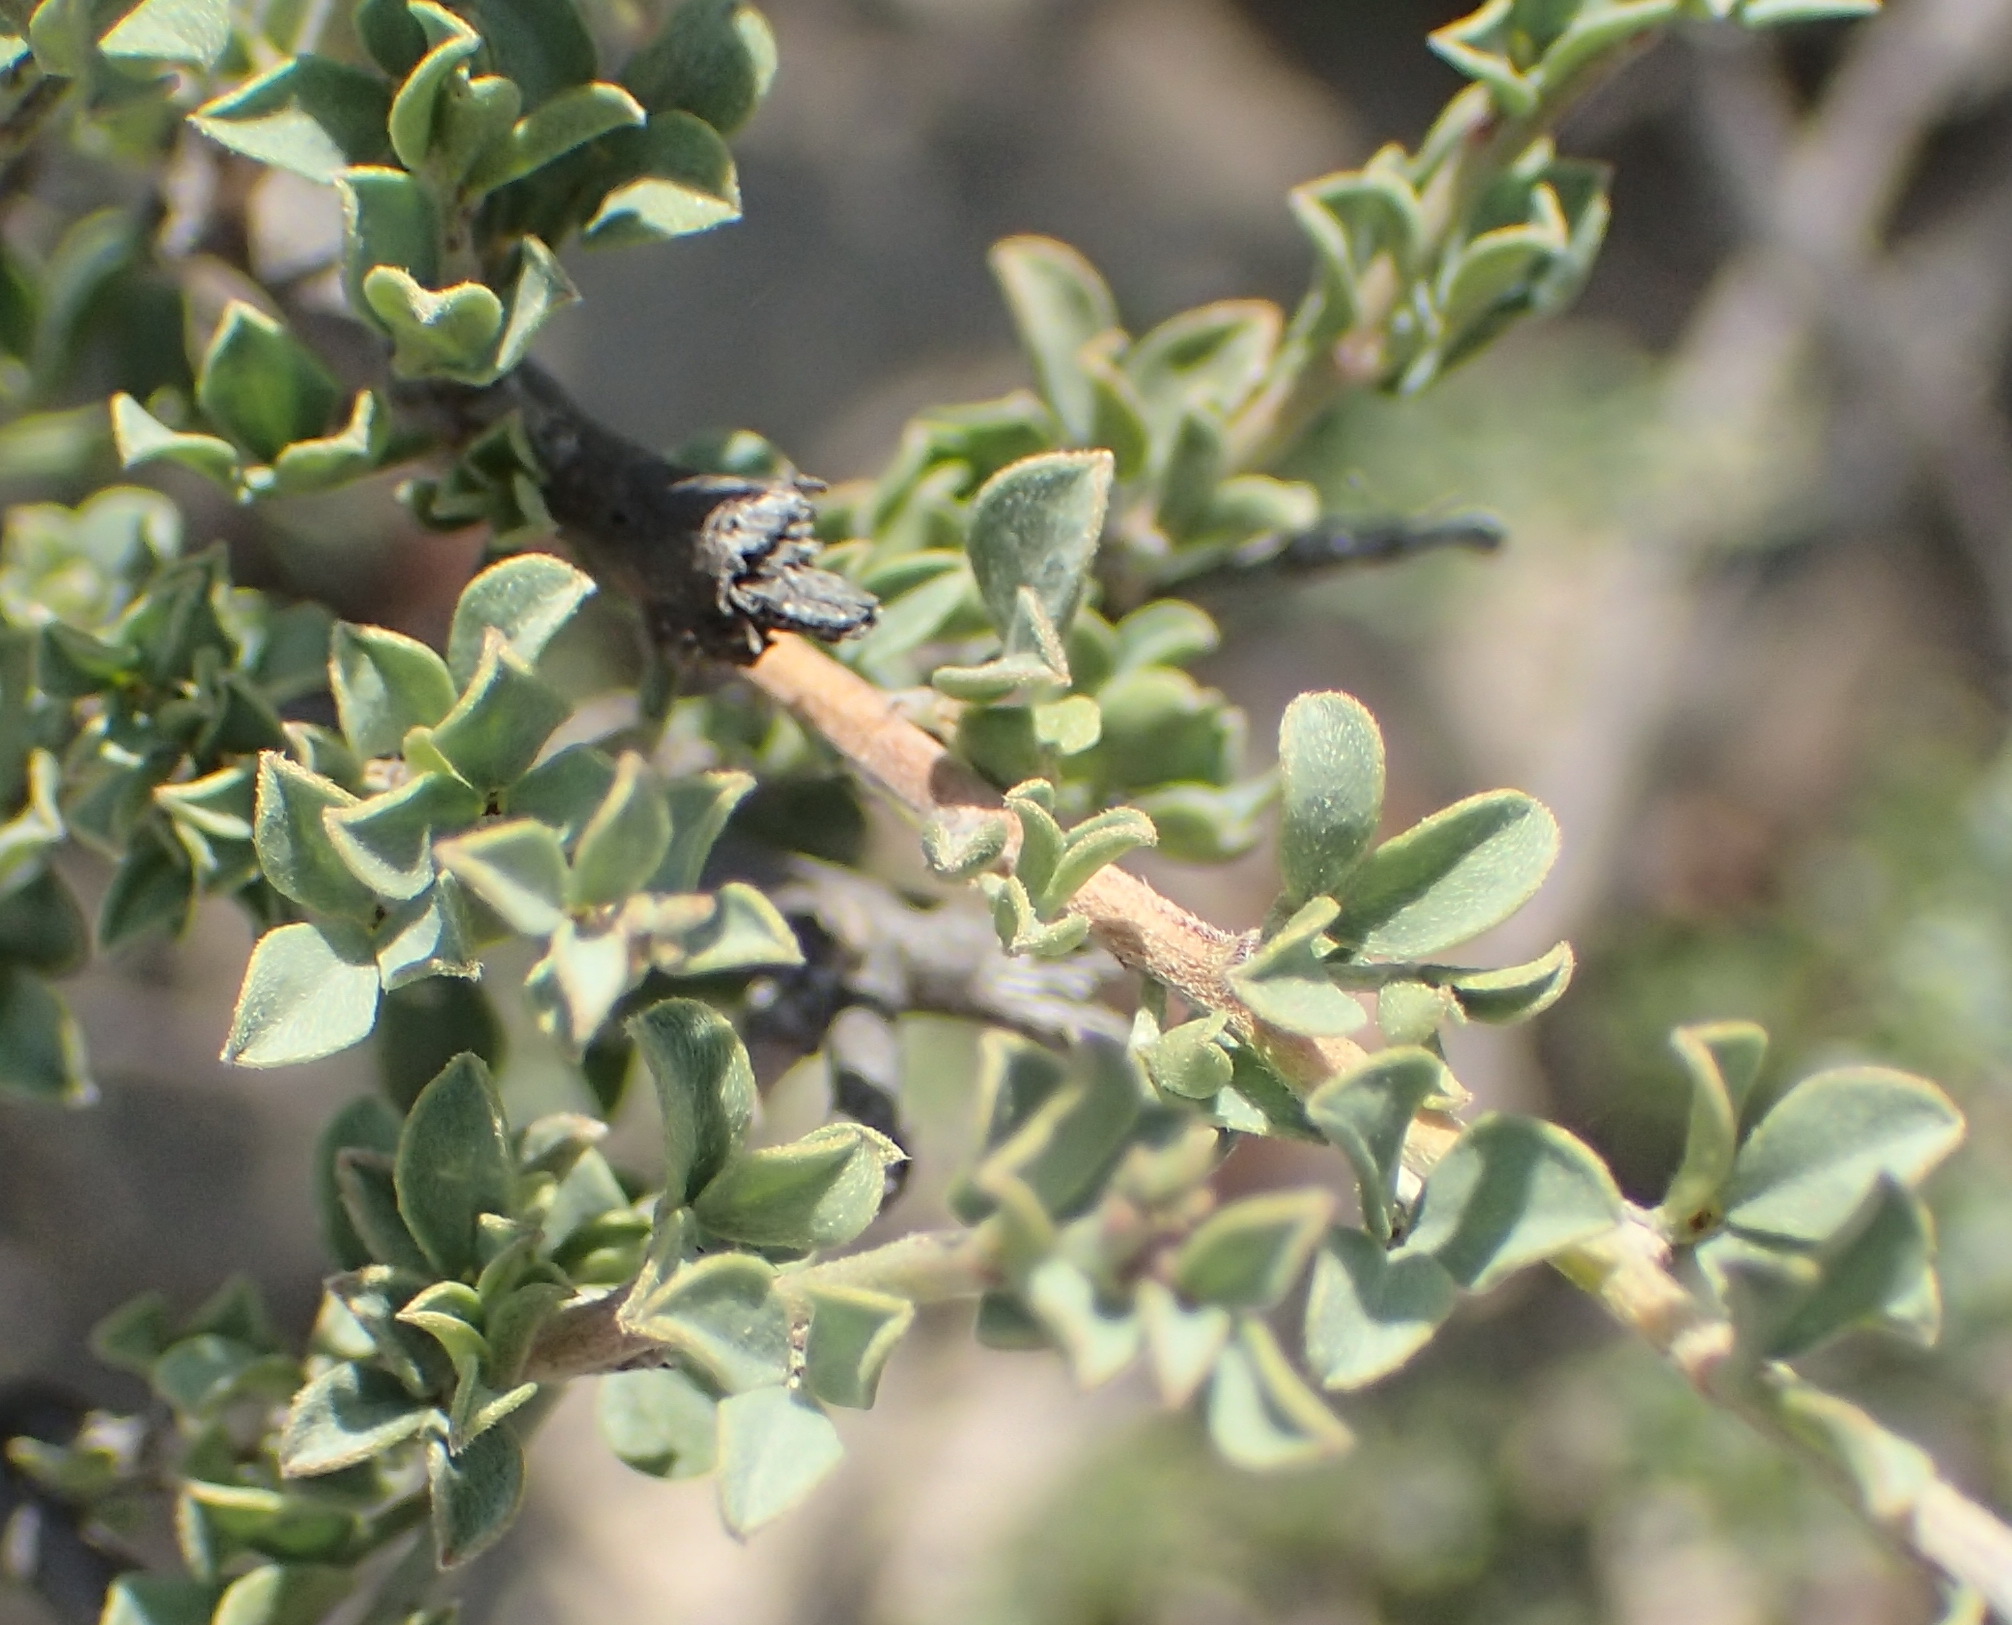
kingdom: Plantae
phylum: Tracheophyta
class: Magnoliopsida
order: Fabales
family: Fabaceae
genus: Indigofera
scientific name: Indigofera nigromontana
